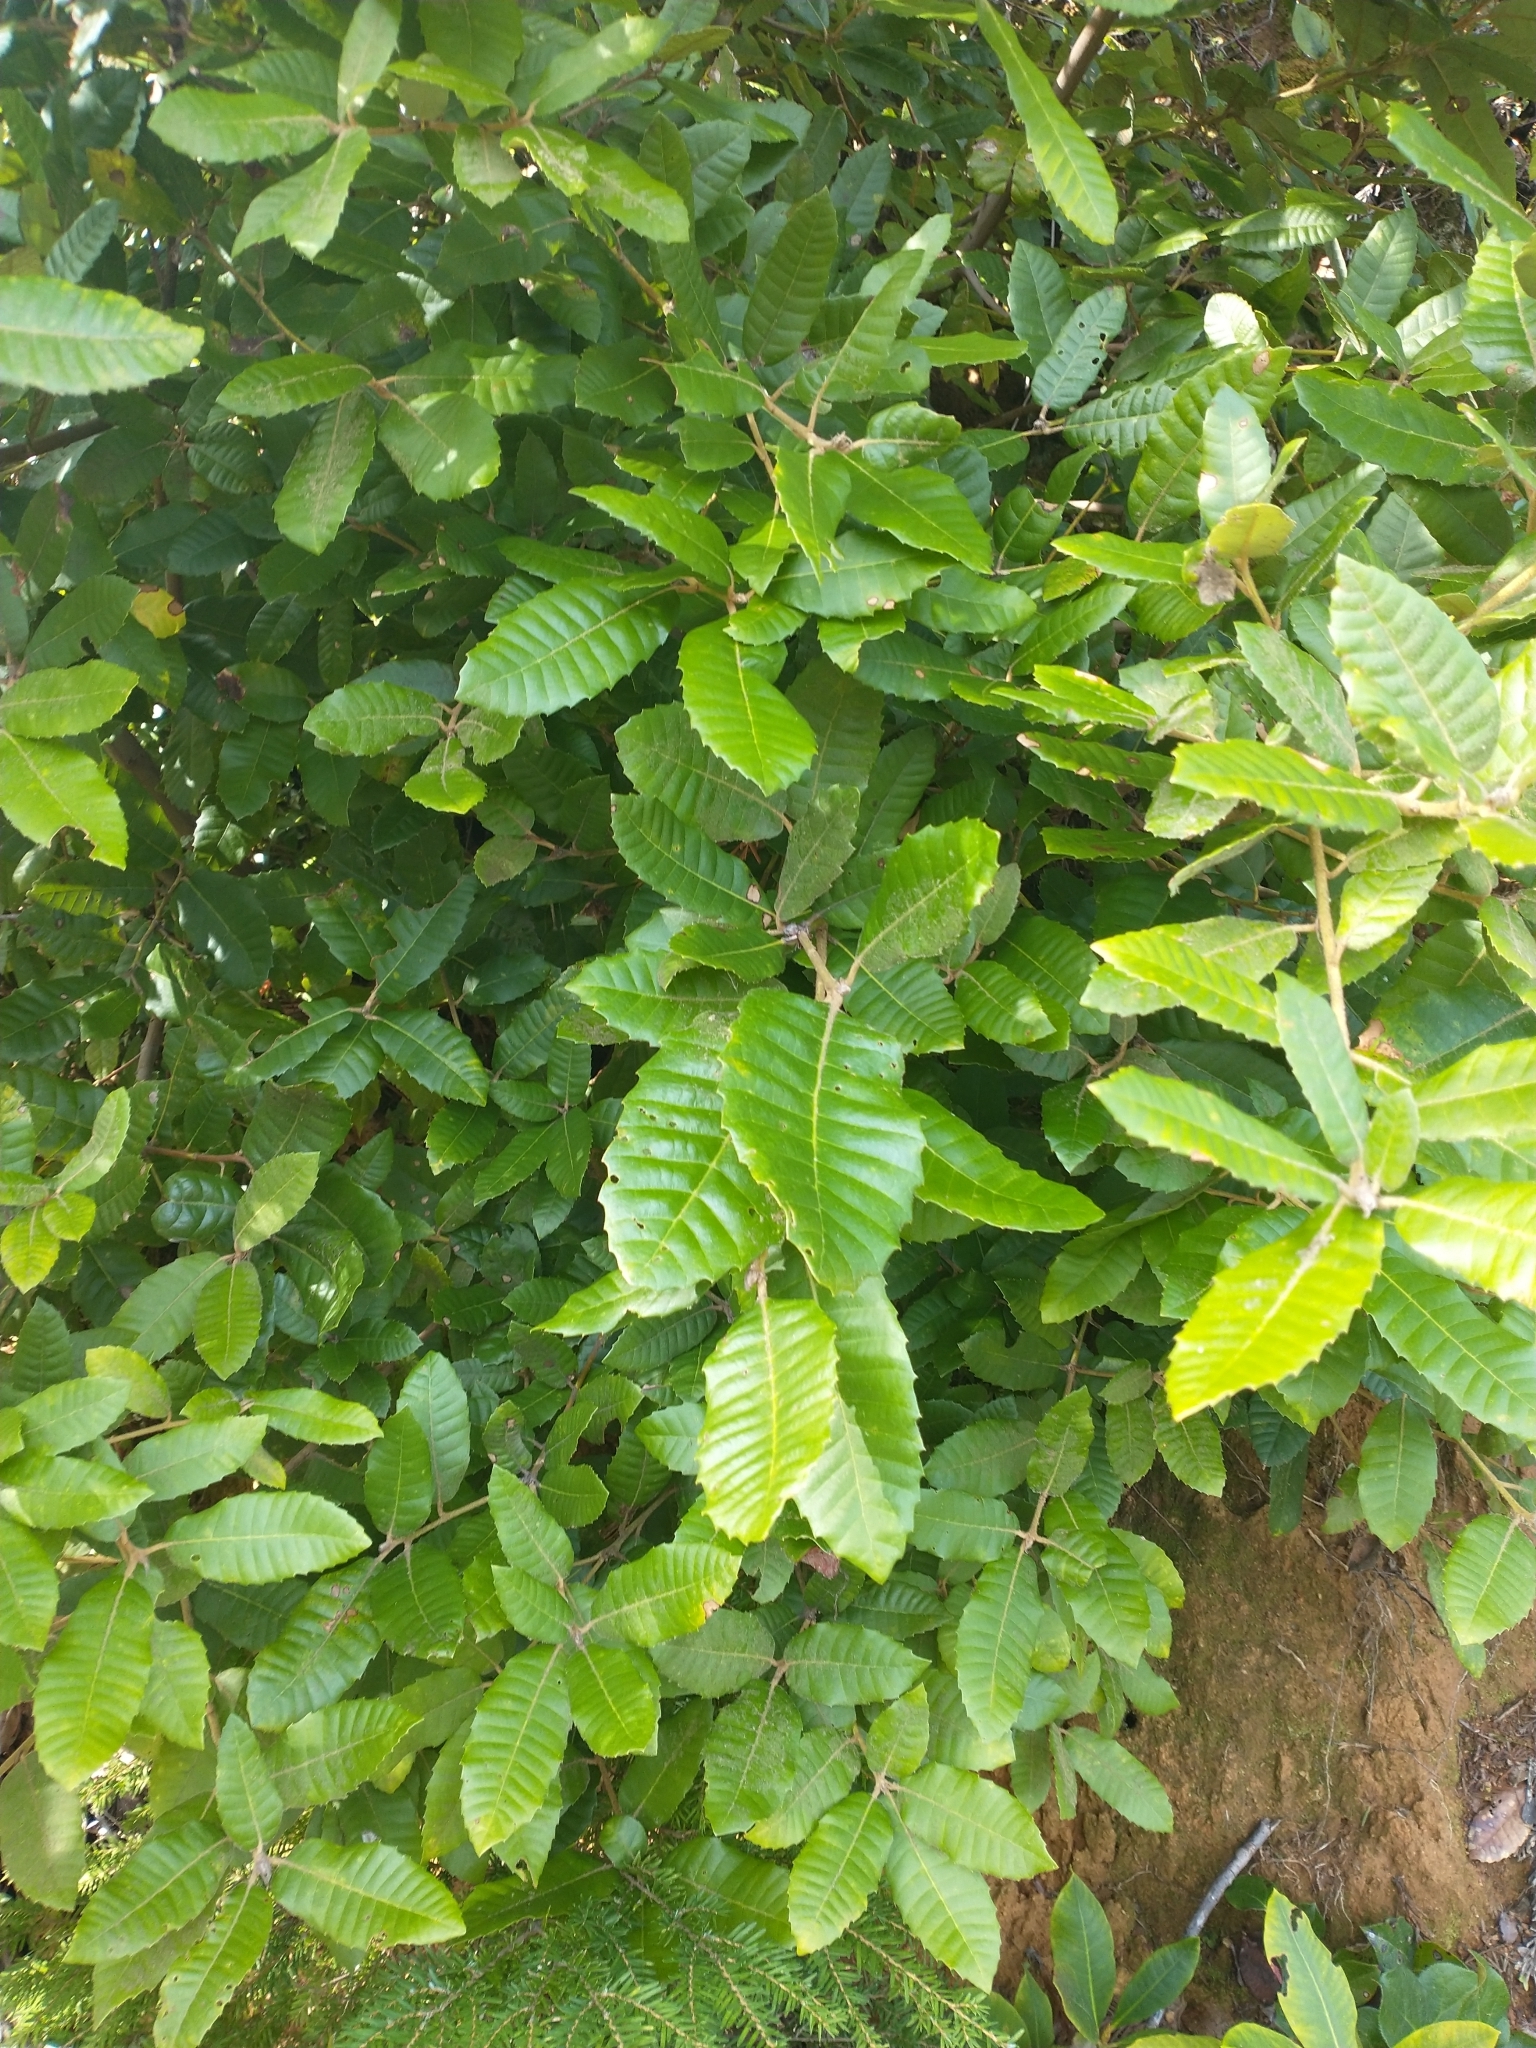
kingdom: Plantae
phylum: Tracheophyta
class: Magnoliopsida
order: Fagales
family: Fagaceae
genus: Notholithocarpus
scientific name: Notholithocarpus densiflorus
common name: Tan bark oak
